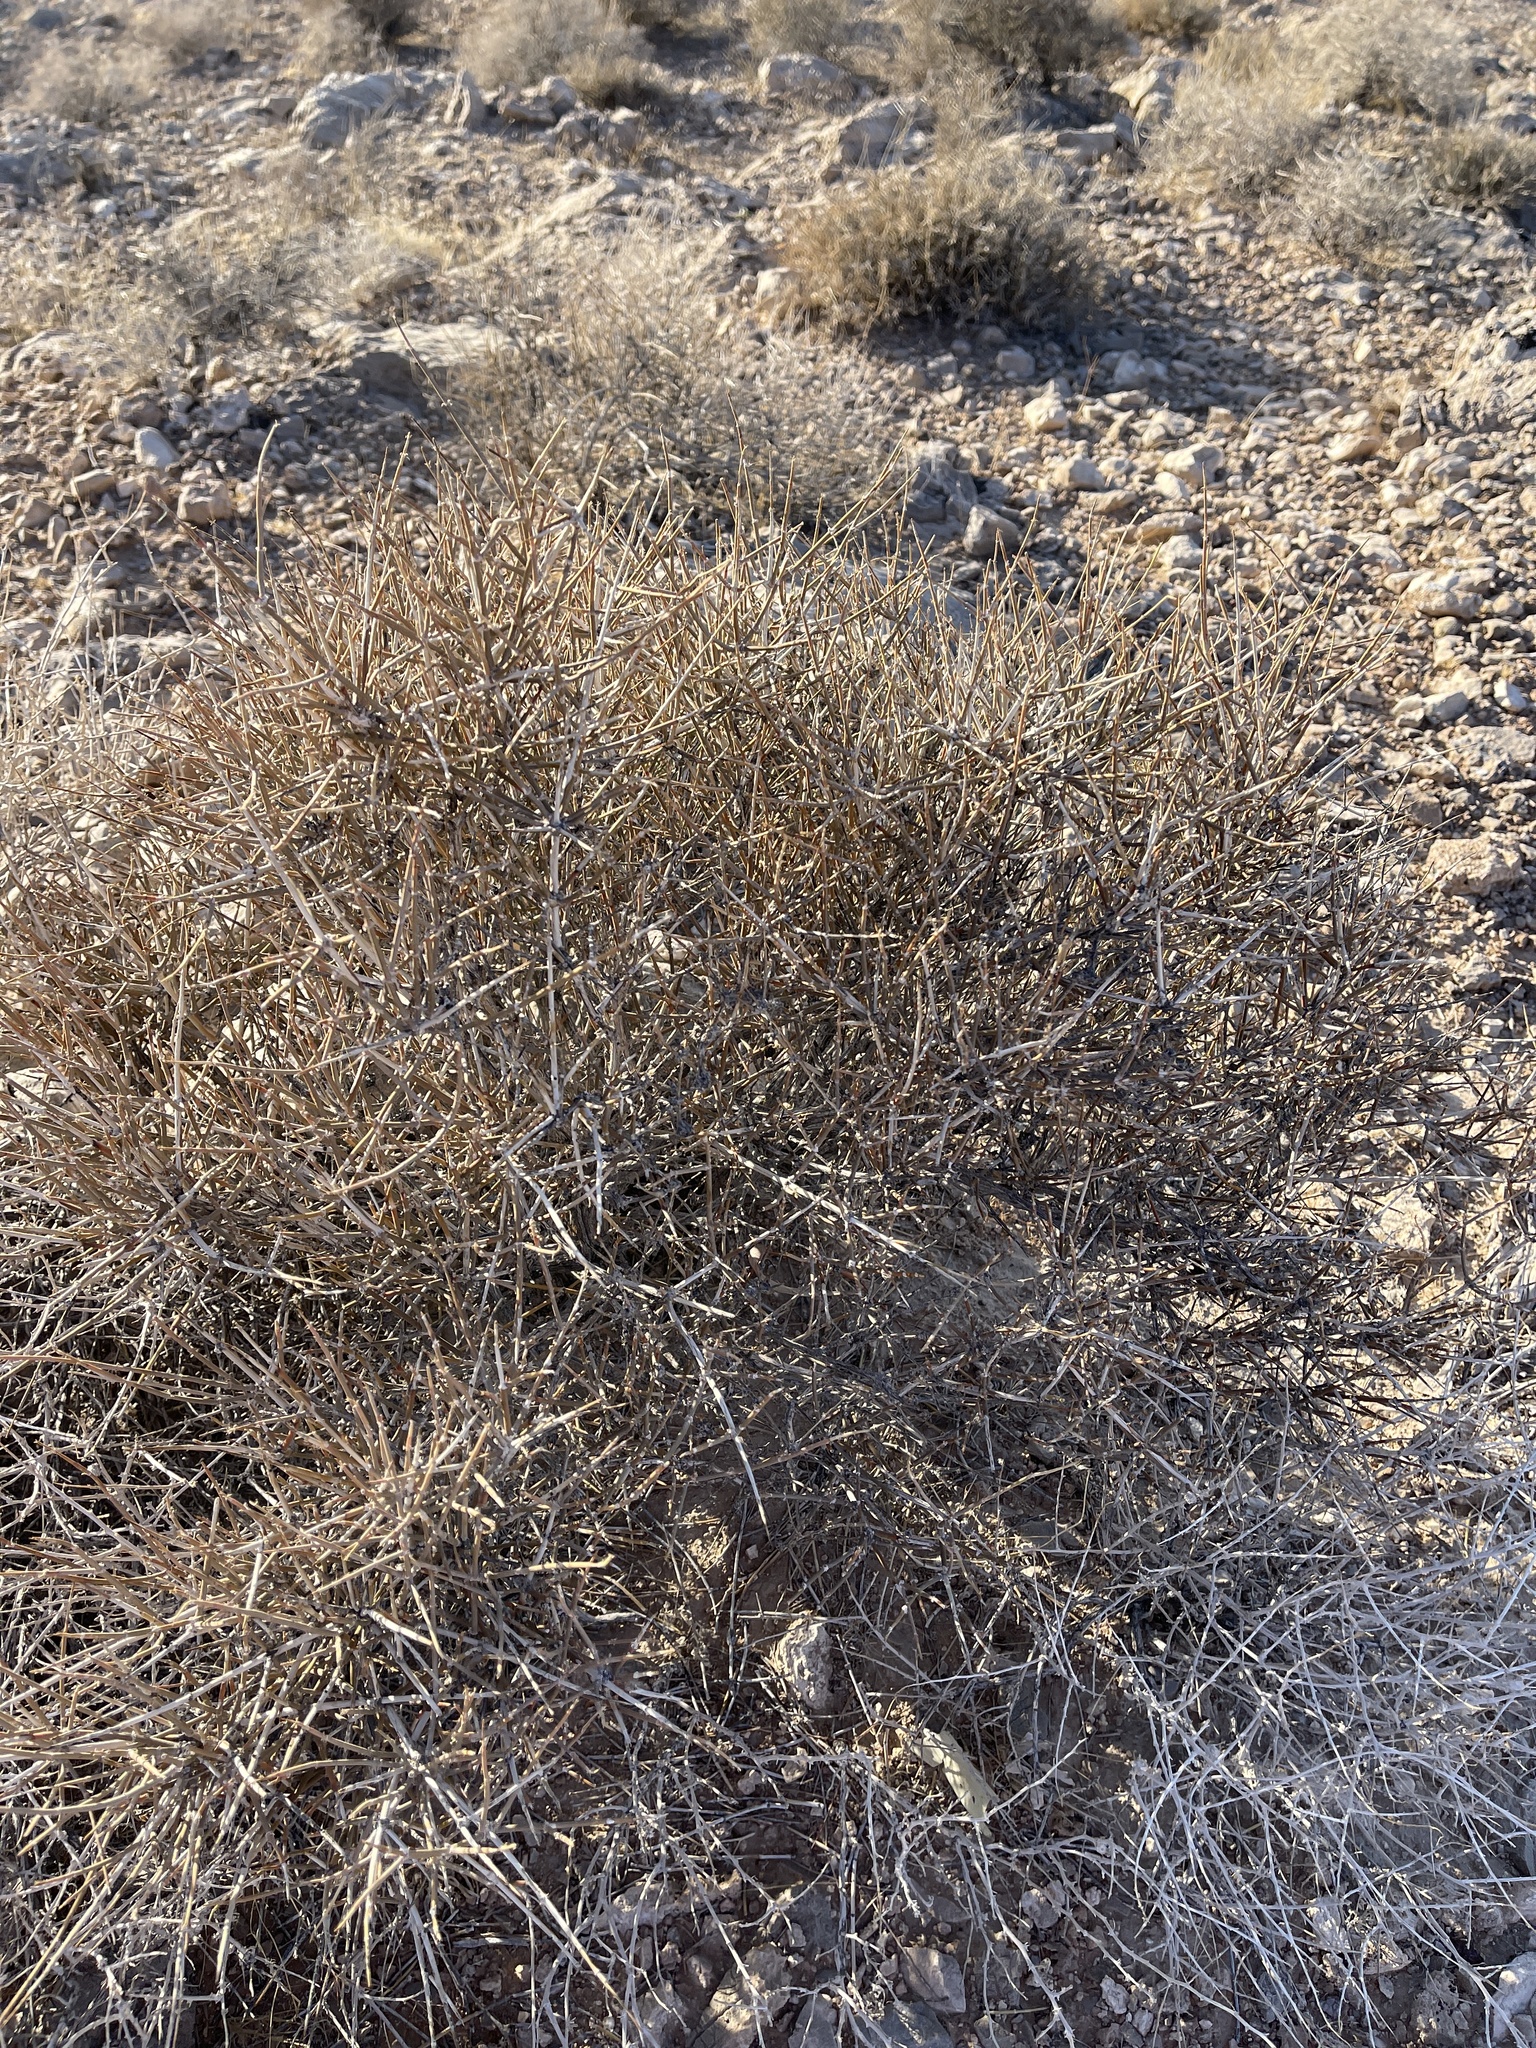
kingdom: Plantae
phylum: Tracheophyta
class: Gnetopsida
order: Ephedrales
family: Ephedraceae
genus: Ephedra
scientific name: Ephedra nevadensis
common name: Gray ephedra
